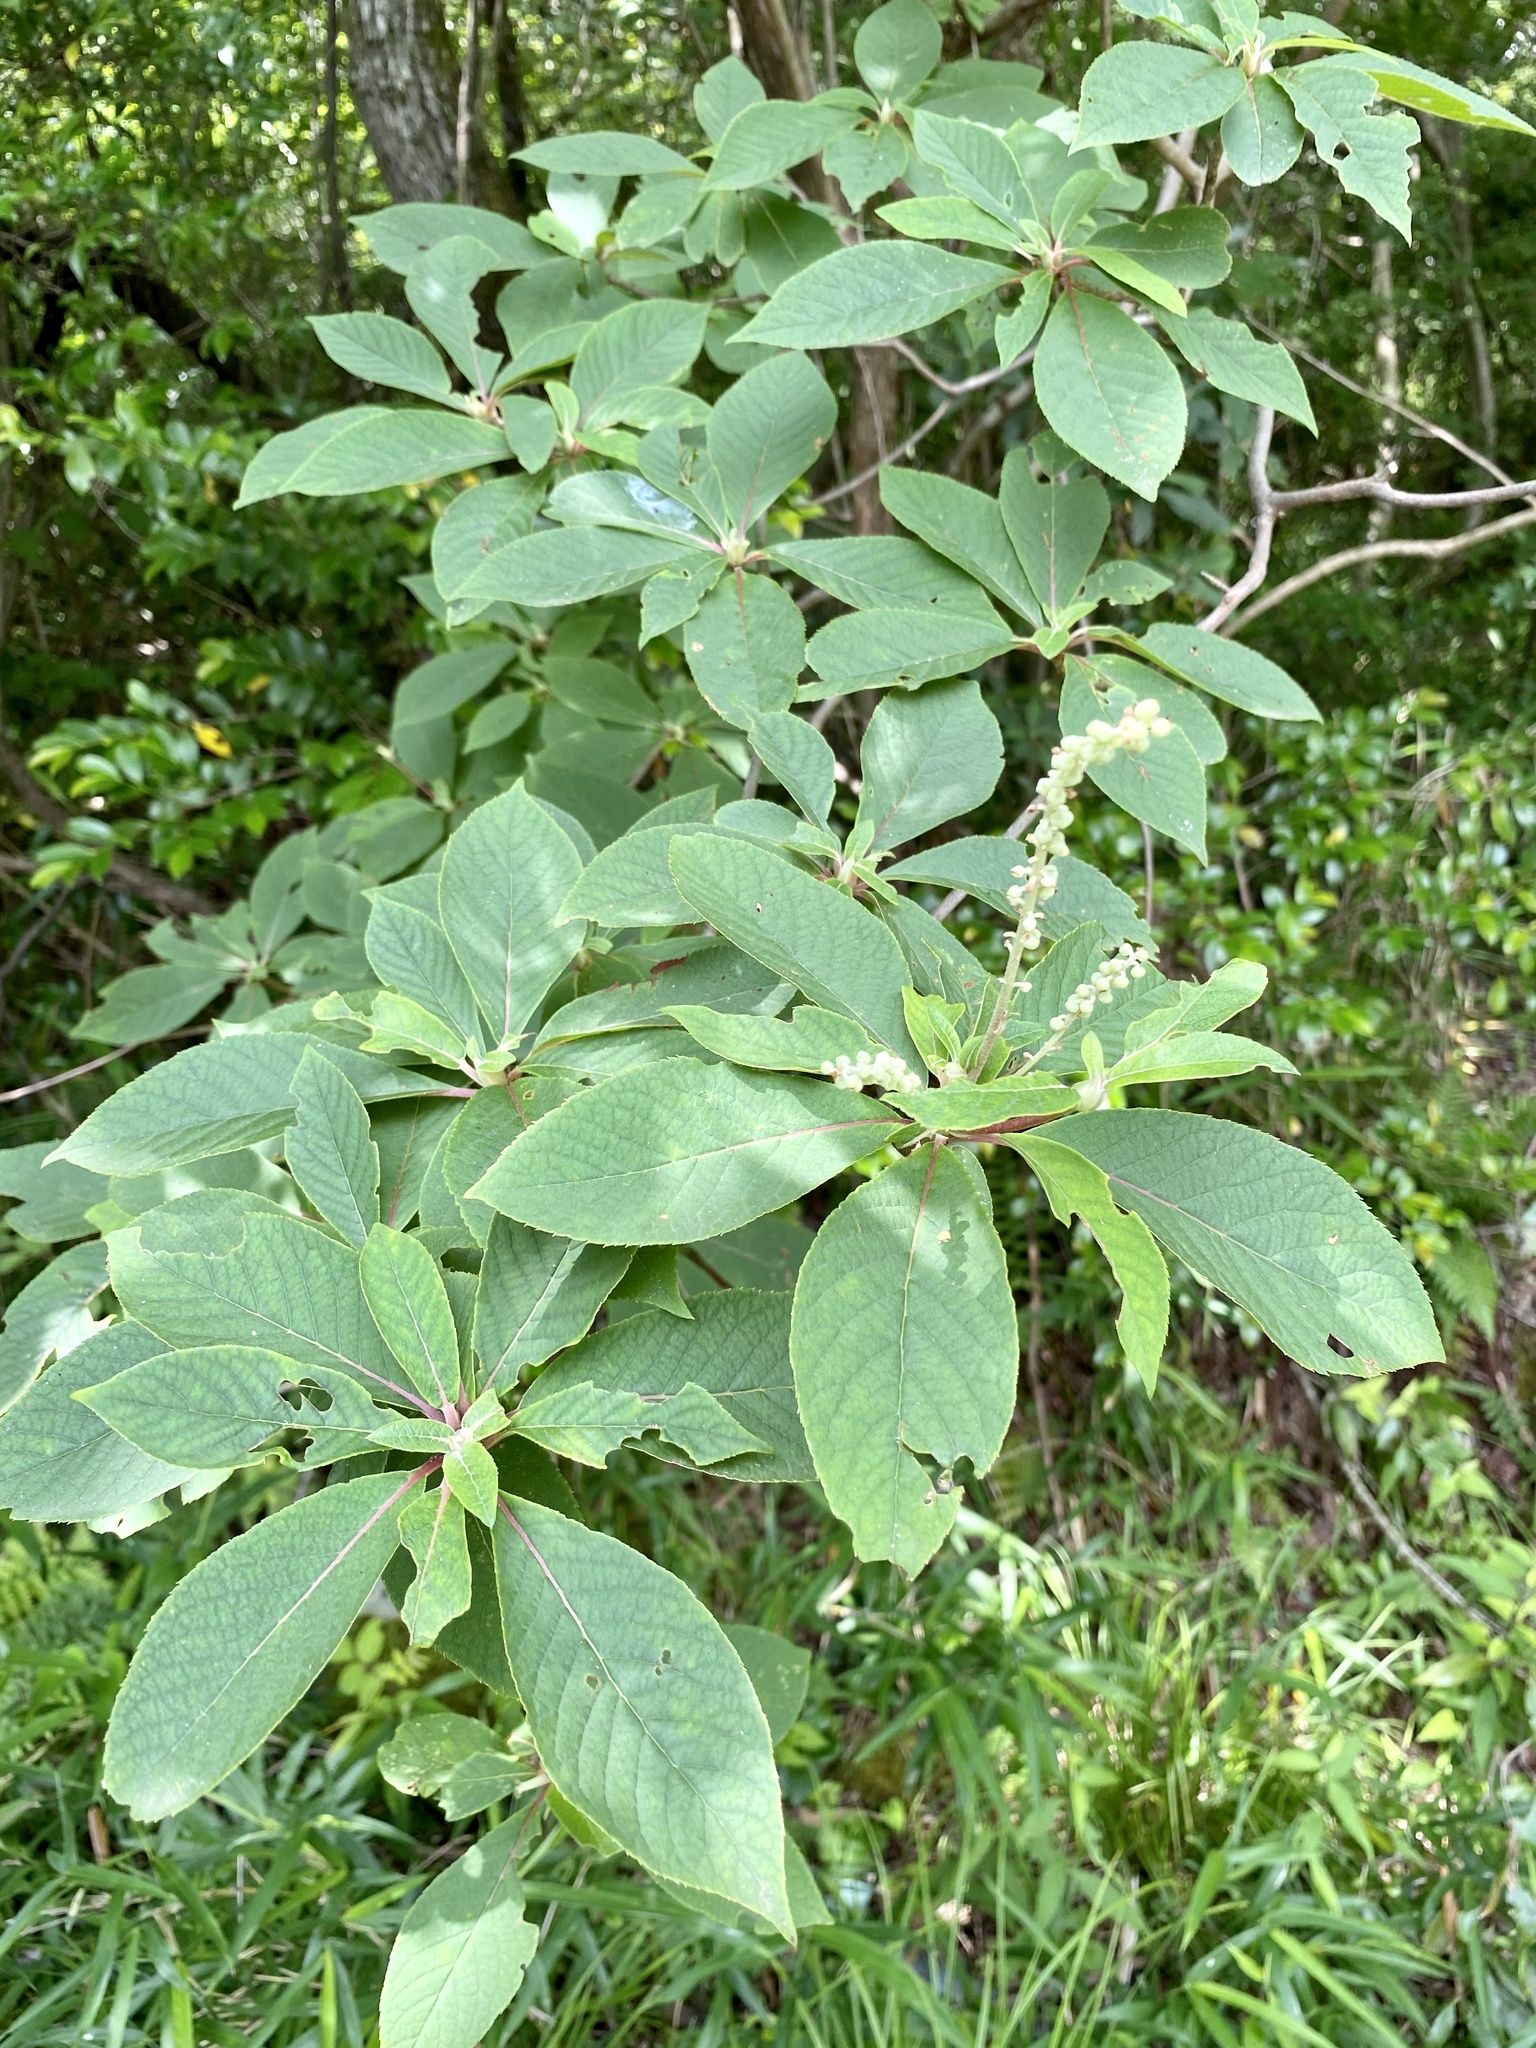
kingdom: Plantae
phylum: Tracheophyta
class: Magnoliopsida
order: Ericales
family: Clethraceae
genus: Clethra
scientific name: Clethra barbinervis
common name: Japanese clethra
